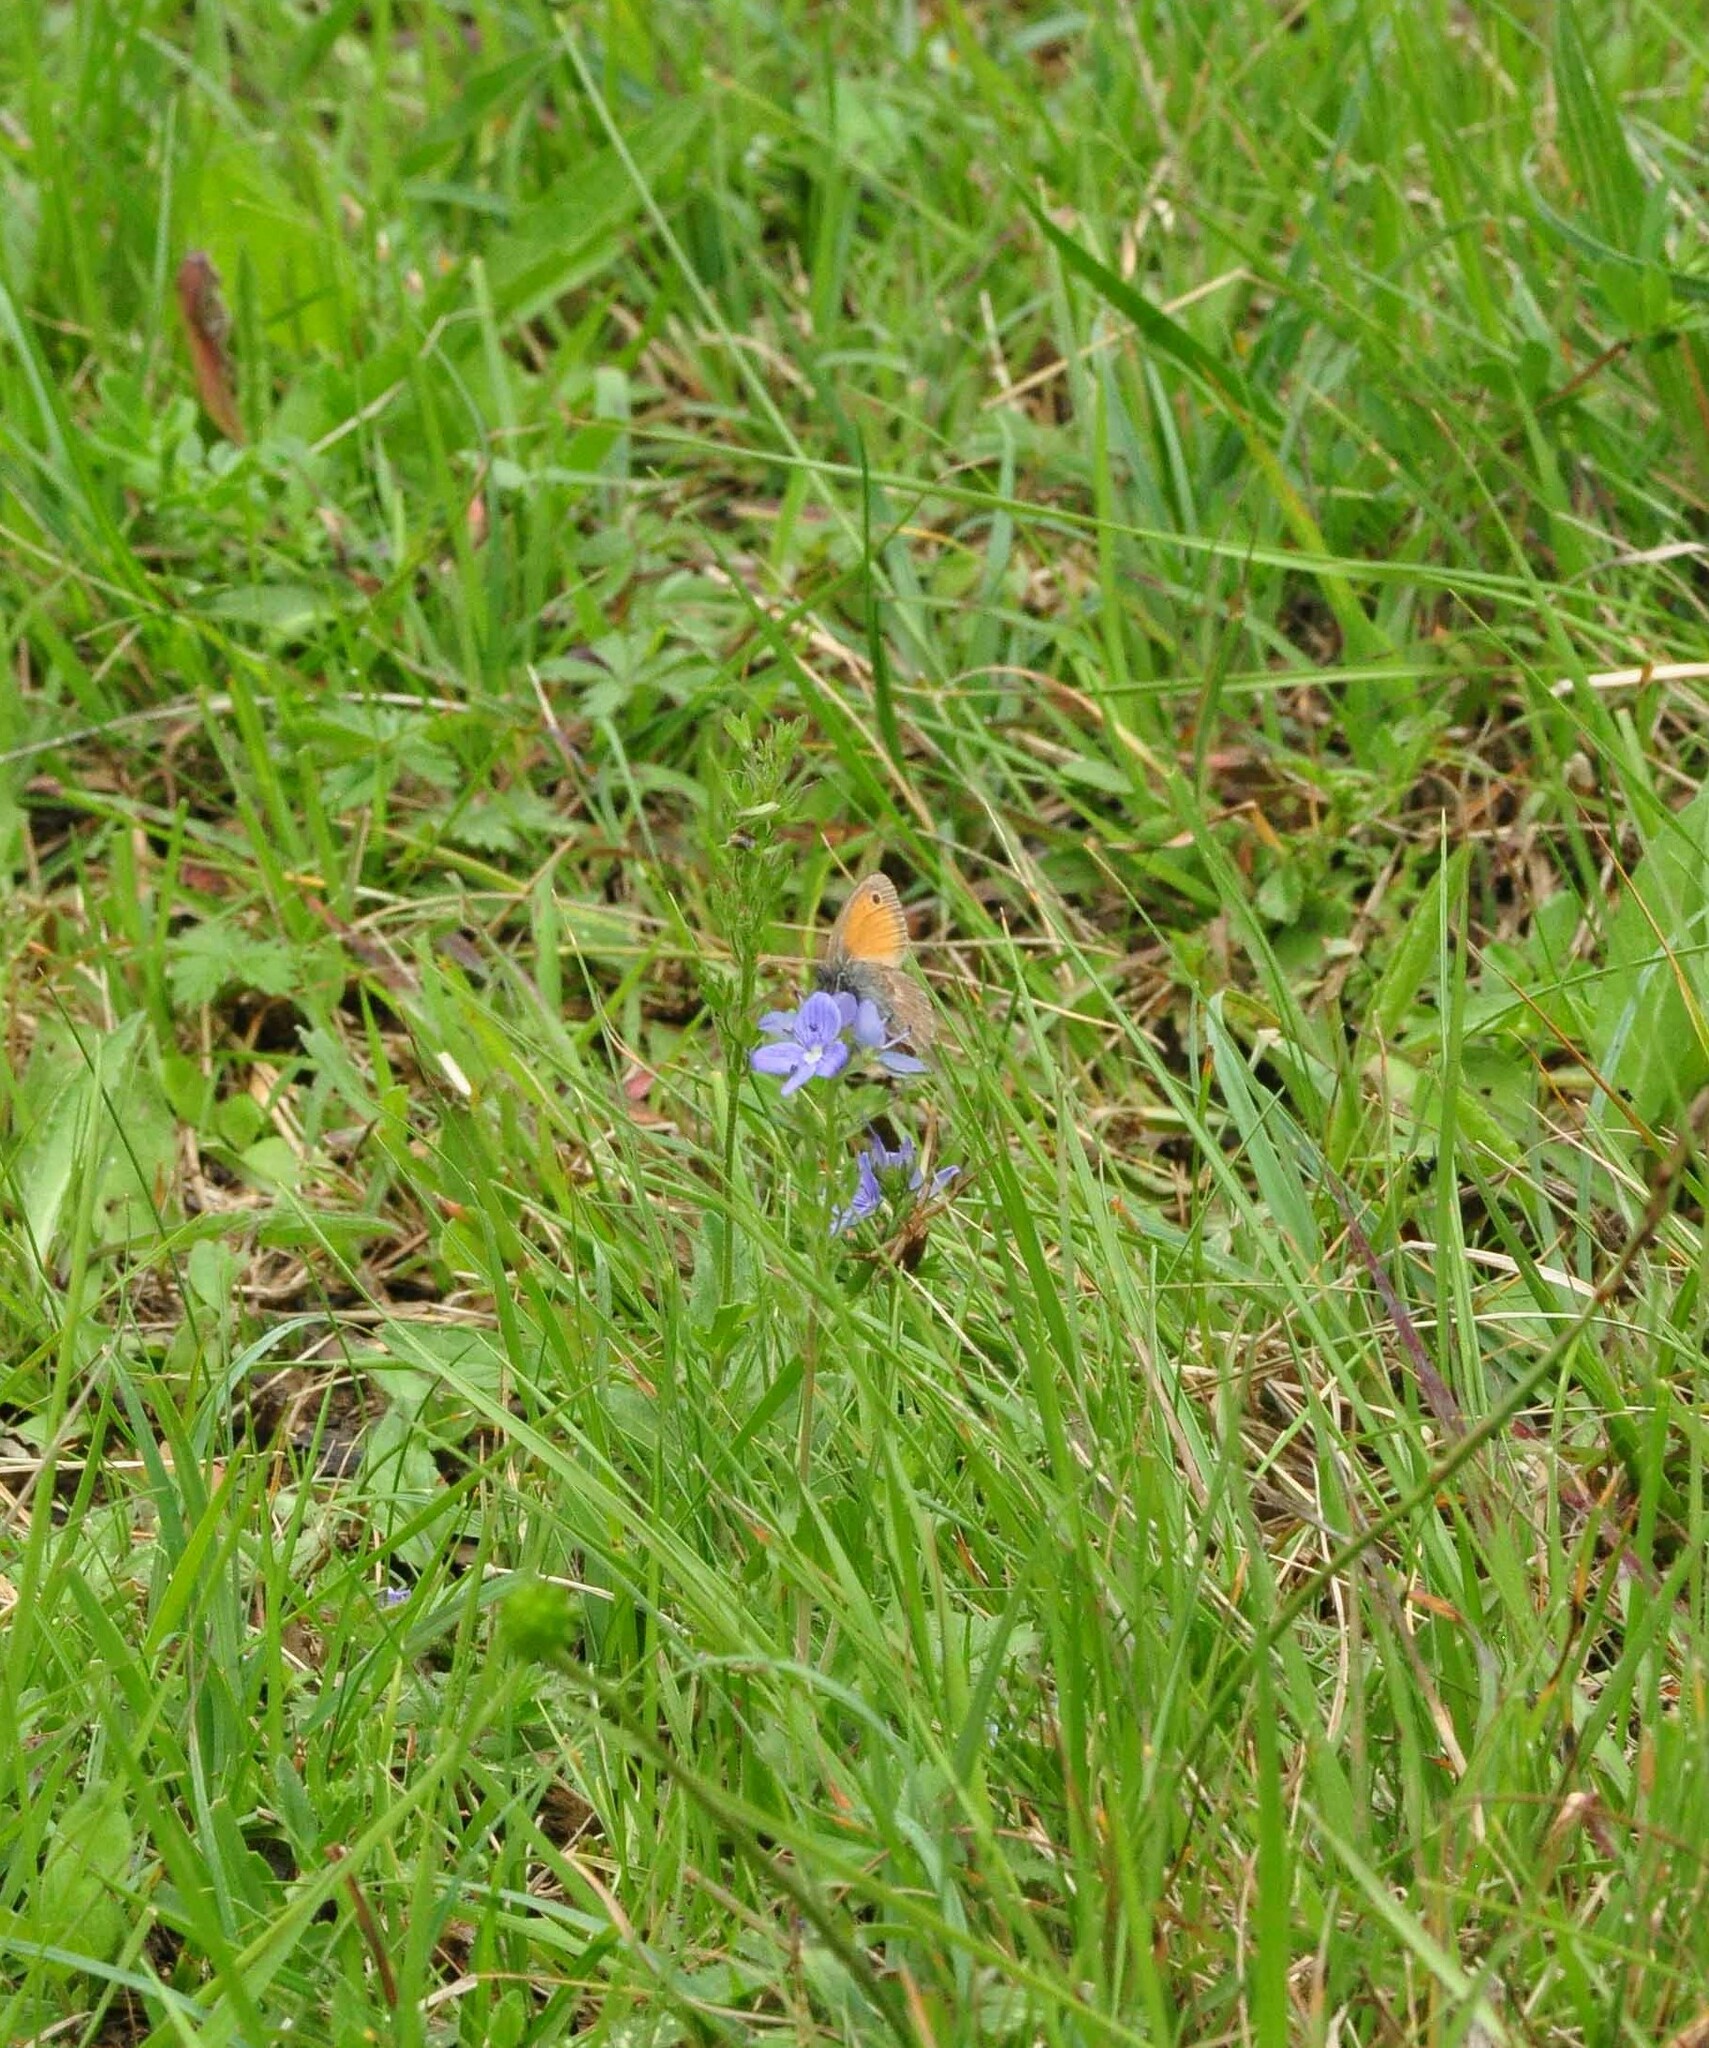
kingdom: Animalia
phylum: Arthropoda
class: Insecta
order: Lepidoptera
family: Nymphalidae
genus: Coenonympha
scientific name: Coenonympha pamphilus
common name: Small heath
